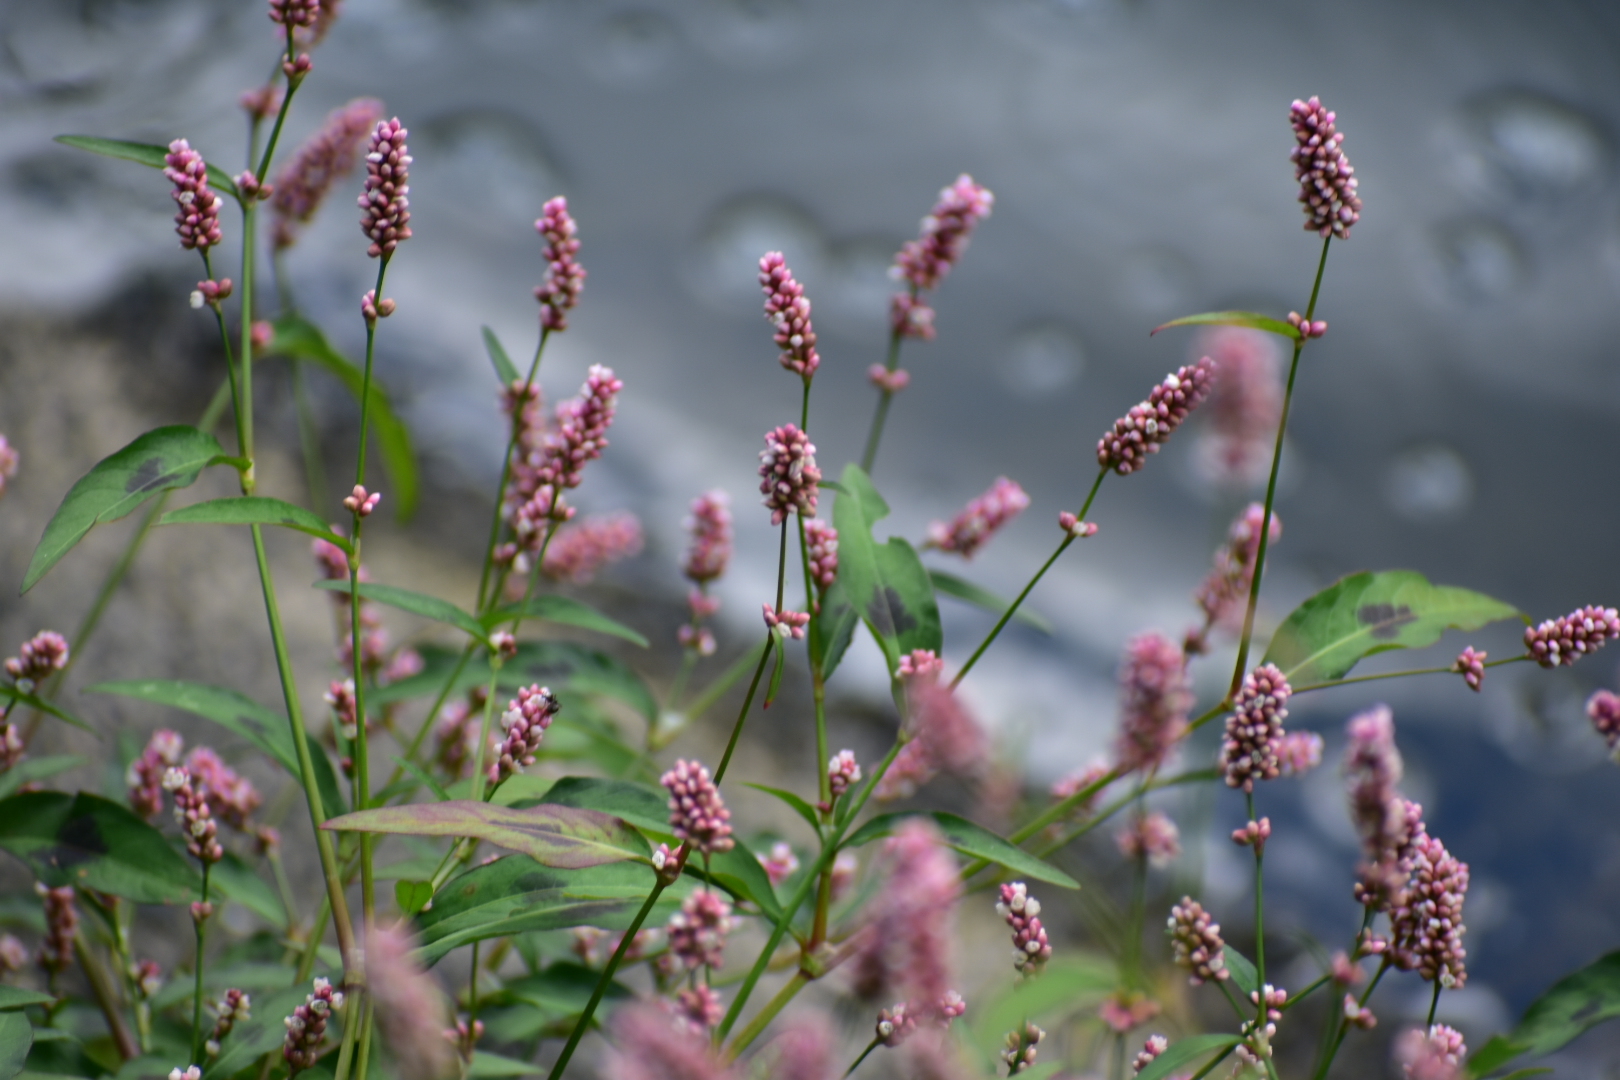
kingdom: Plantae
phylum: Tracheophyta
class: Magnoliopsida
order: Caryophyllales
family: Polygonaceae
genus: Persicaria
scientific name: Persicaria maculosa
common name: Redshank
